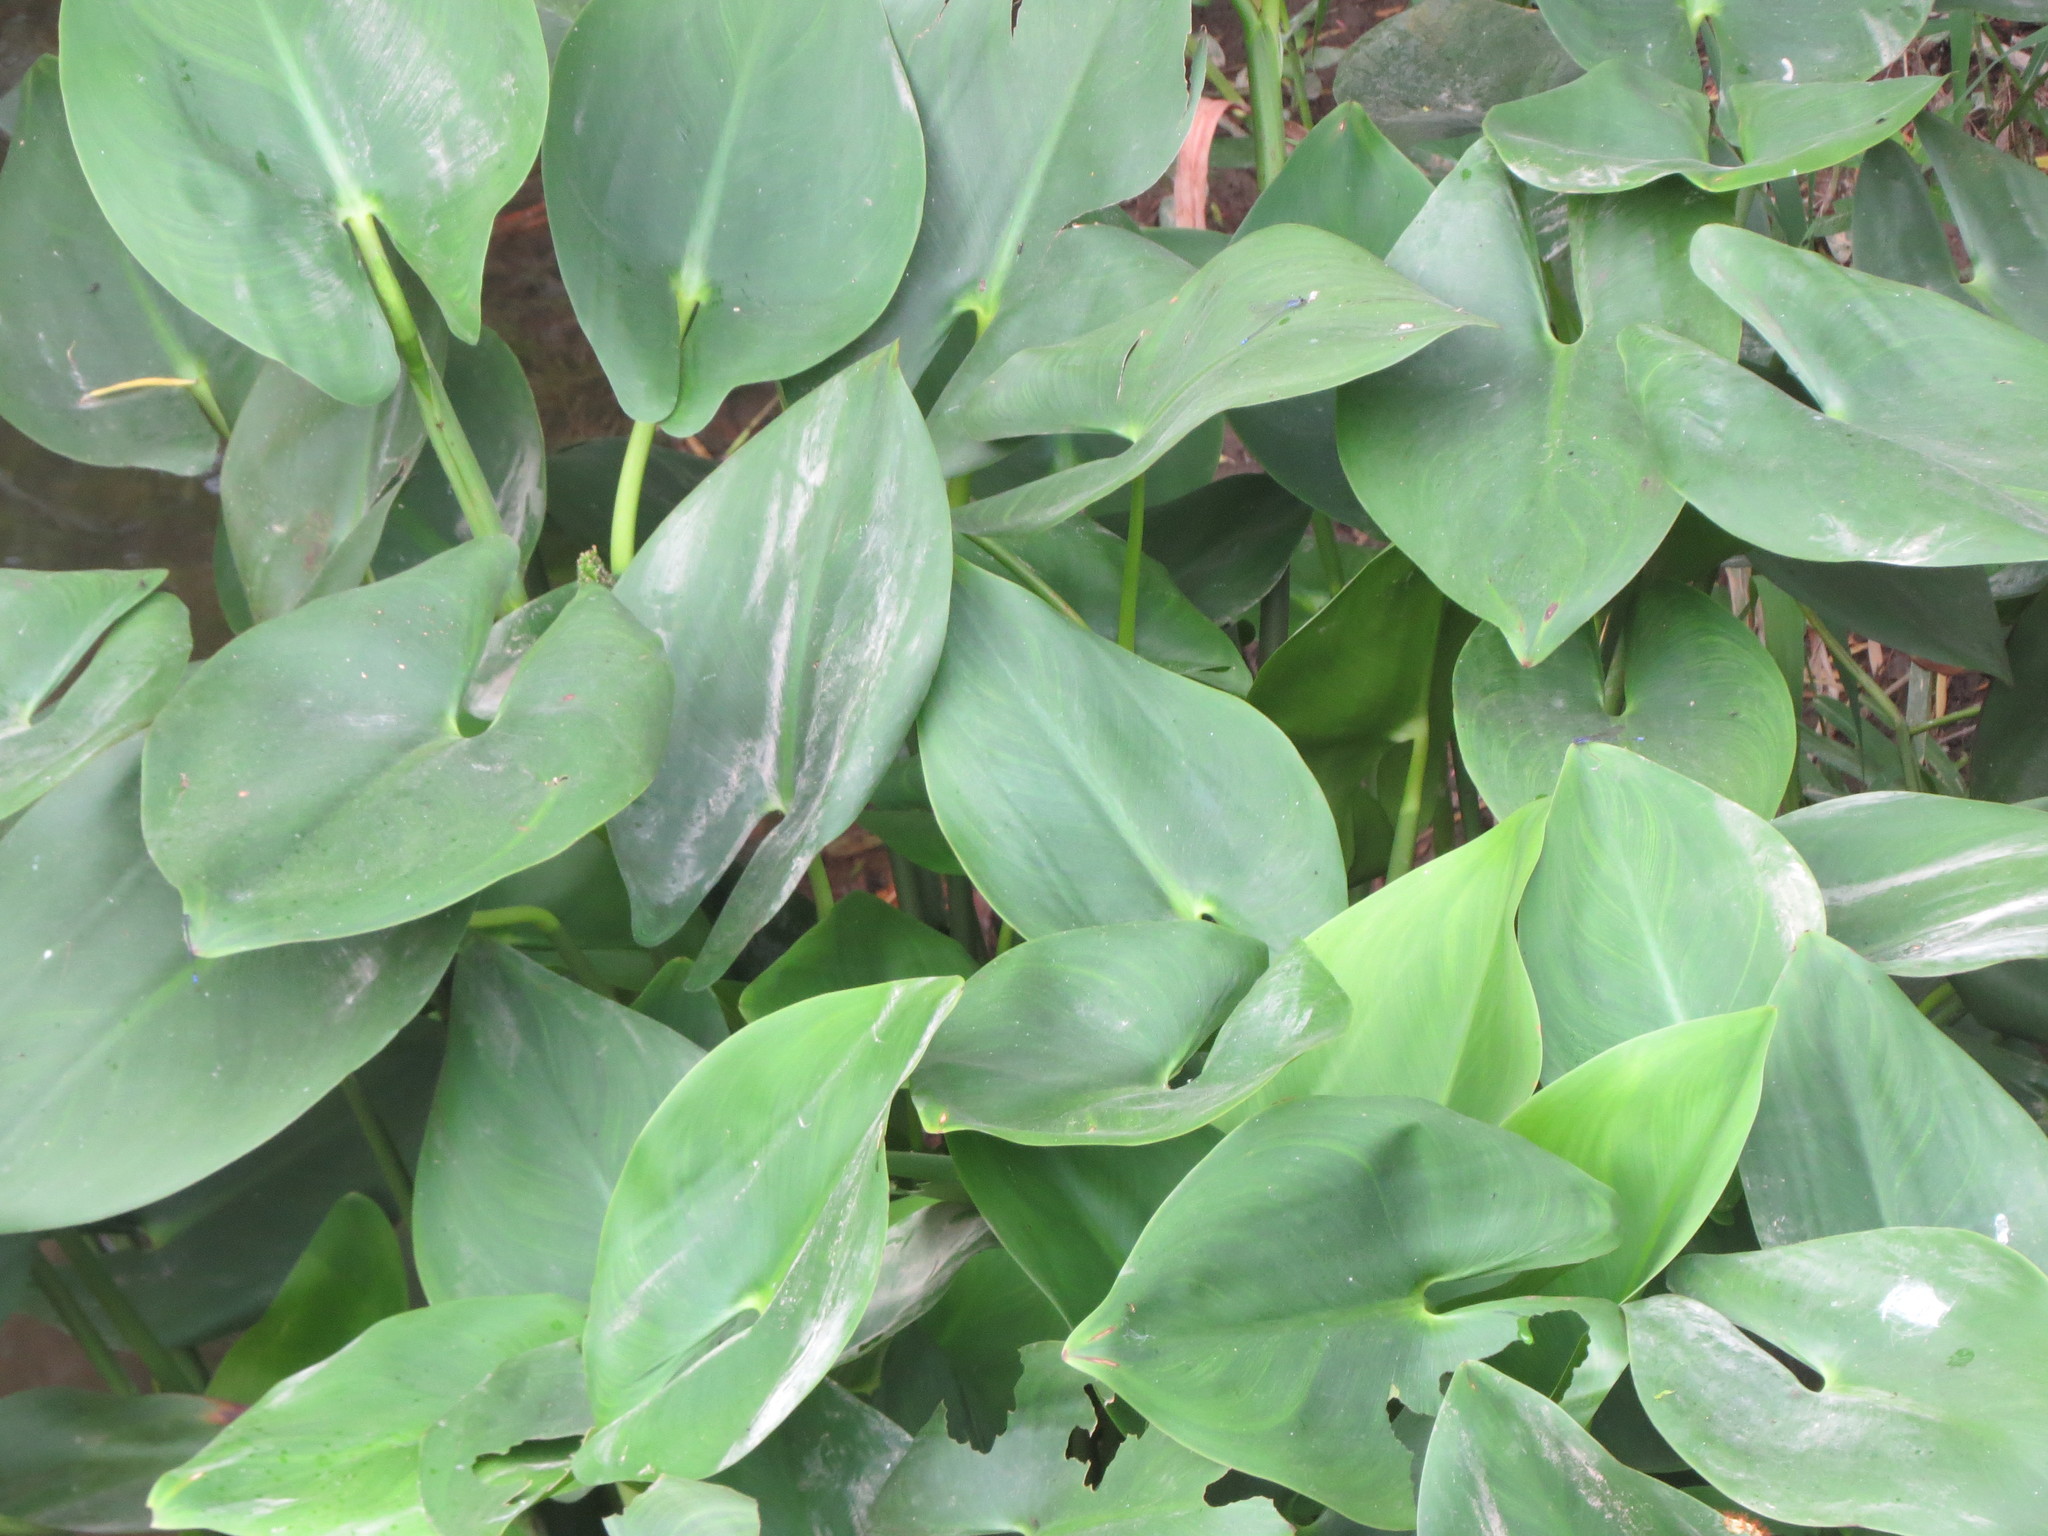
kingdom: Plantae
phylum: Tracheophyta
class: Liliopsida
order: Commelinales
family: Pontederiaceae
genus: Pontederia
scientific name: Pontederia sagittata
